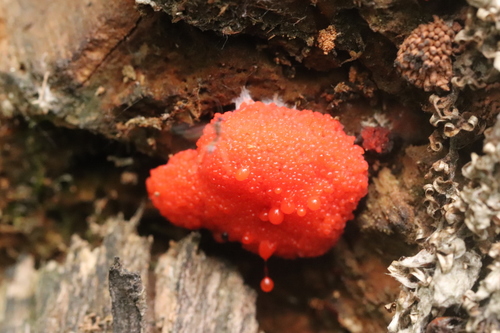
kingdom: Protozoa
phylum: Mycetozoa
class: Myxomycetes
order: Cribrariales
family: Tubiferaceae
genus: Tubifera
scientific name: Tubifera ferruginosa
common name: Red raspberry slime mold
